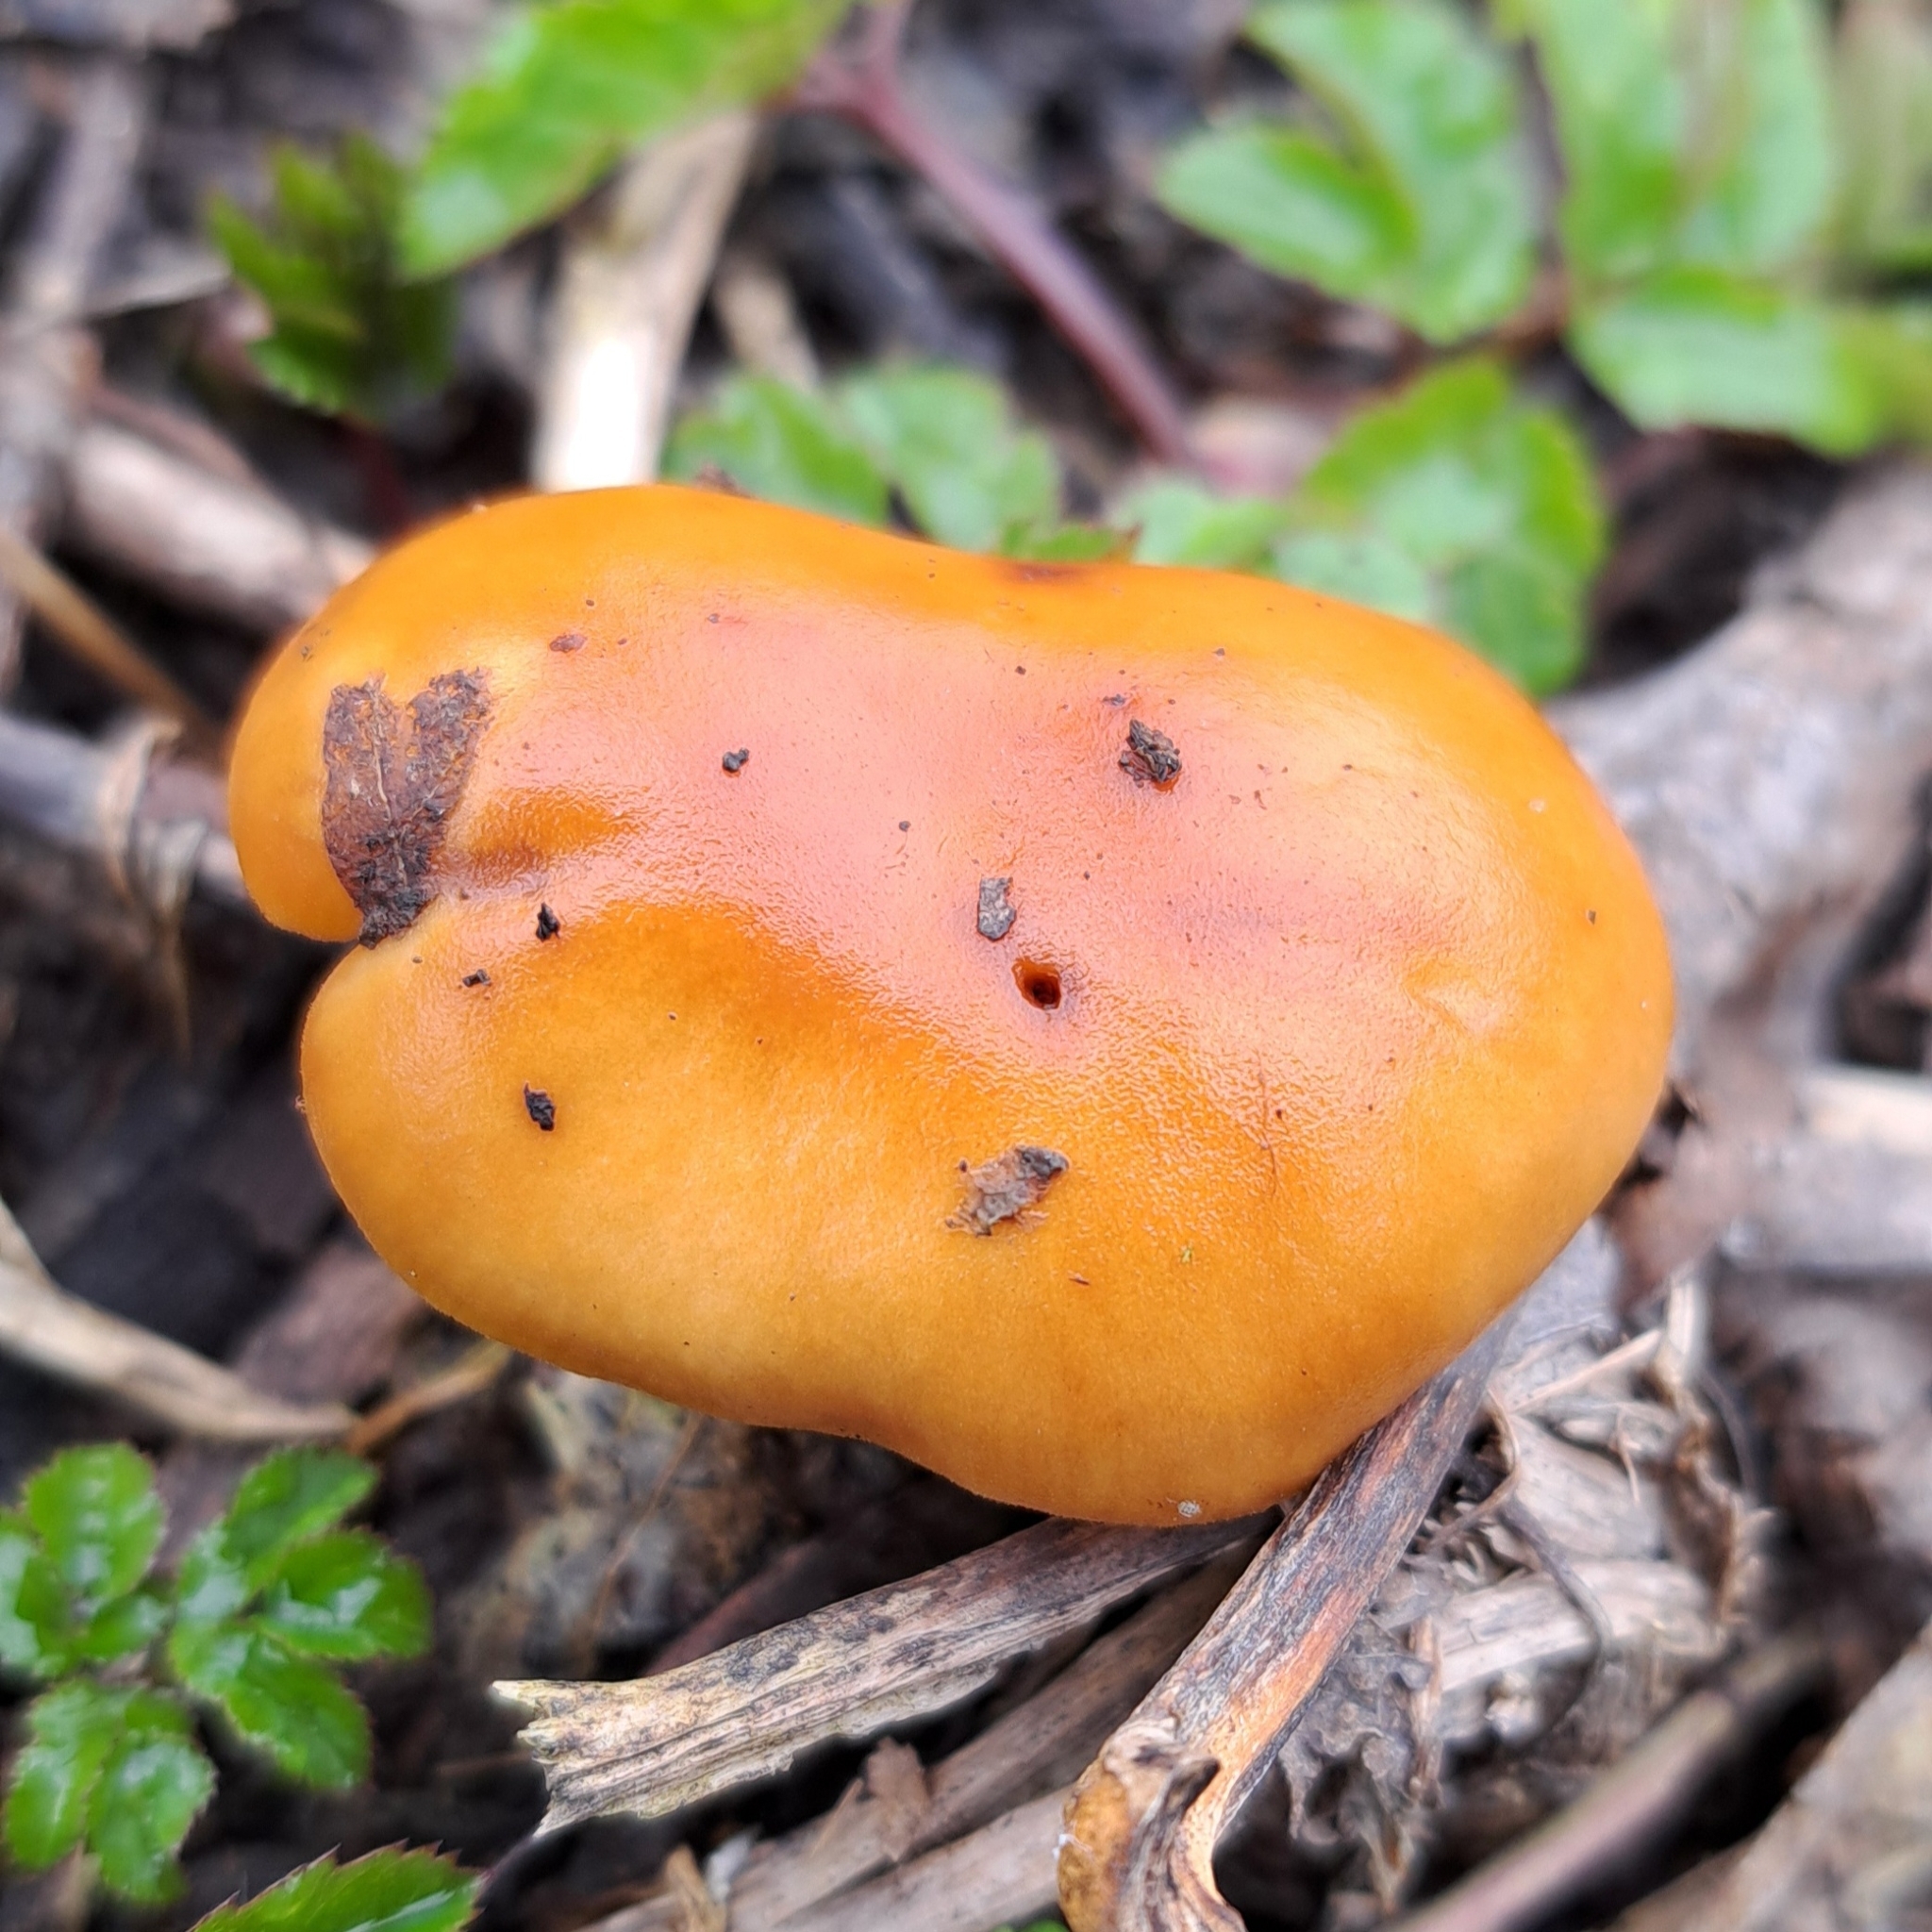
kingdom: Fungi
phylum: Basidiomycota
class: Agaricomycetes
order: Agaricales
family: Physalacriaceae
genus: Flammulina
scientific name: Flammulina
